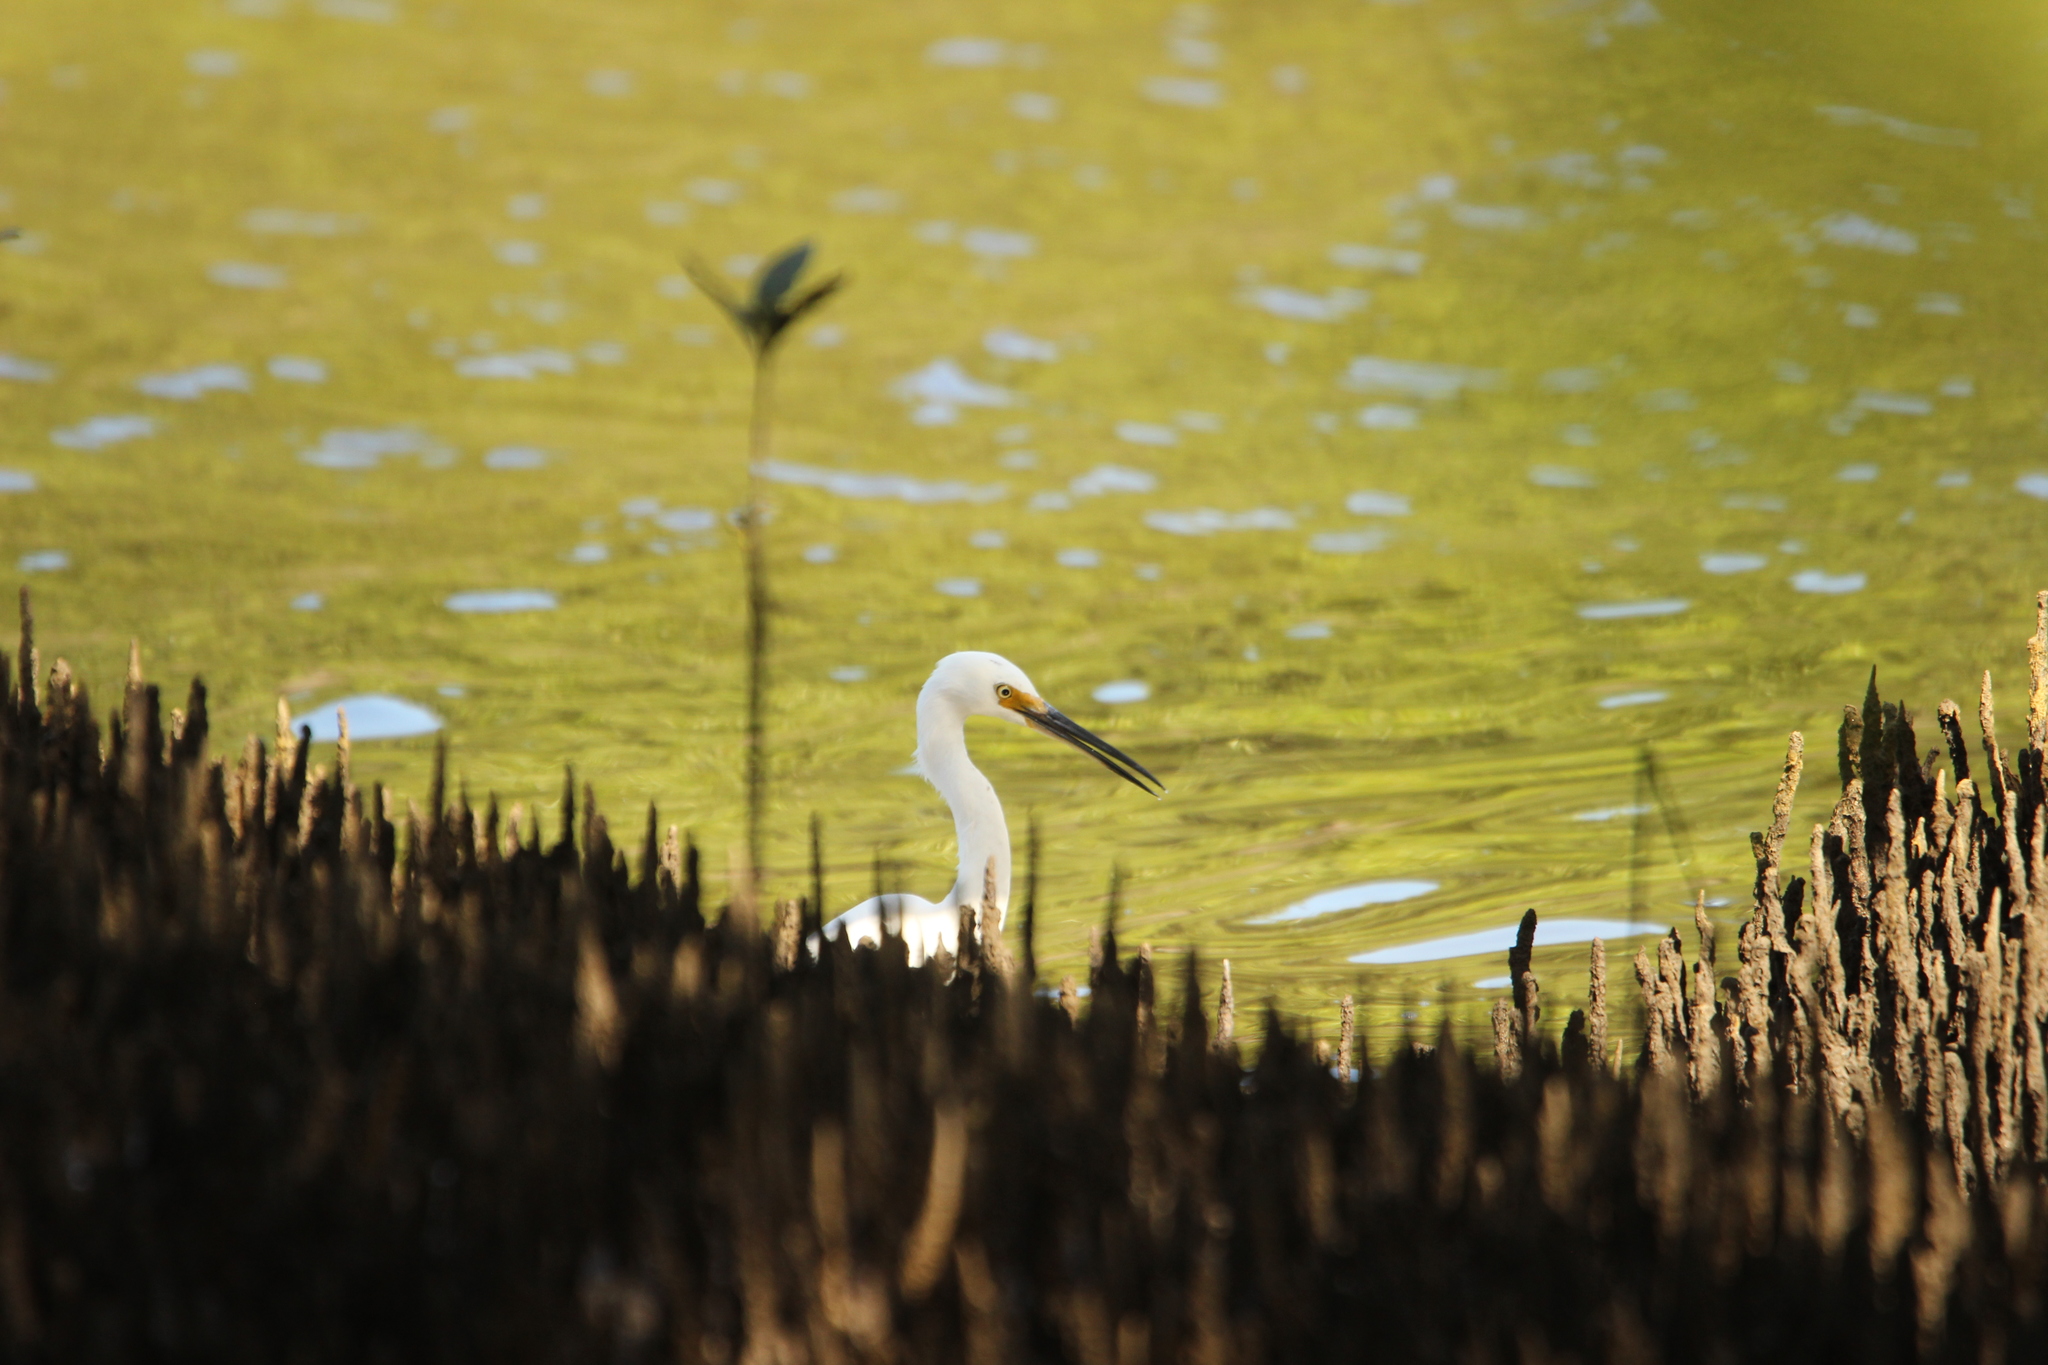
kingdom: Animalia
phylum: Chordata
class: Aves
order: Pelecaniformes
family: Ardeidae
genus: Egretta
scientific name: Egretta garzetta
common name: Little egret
